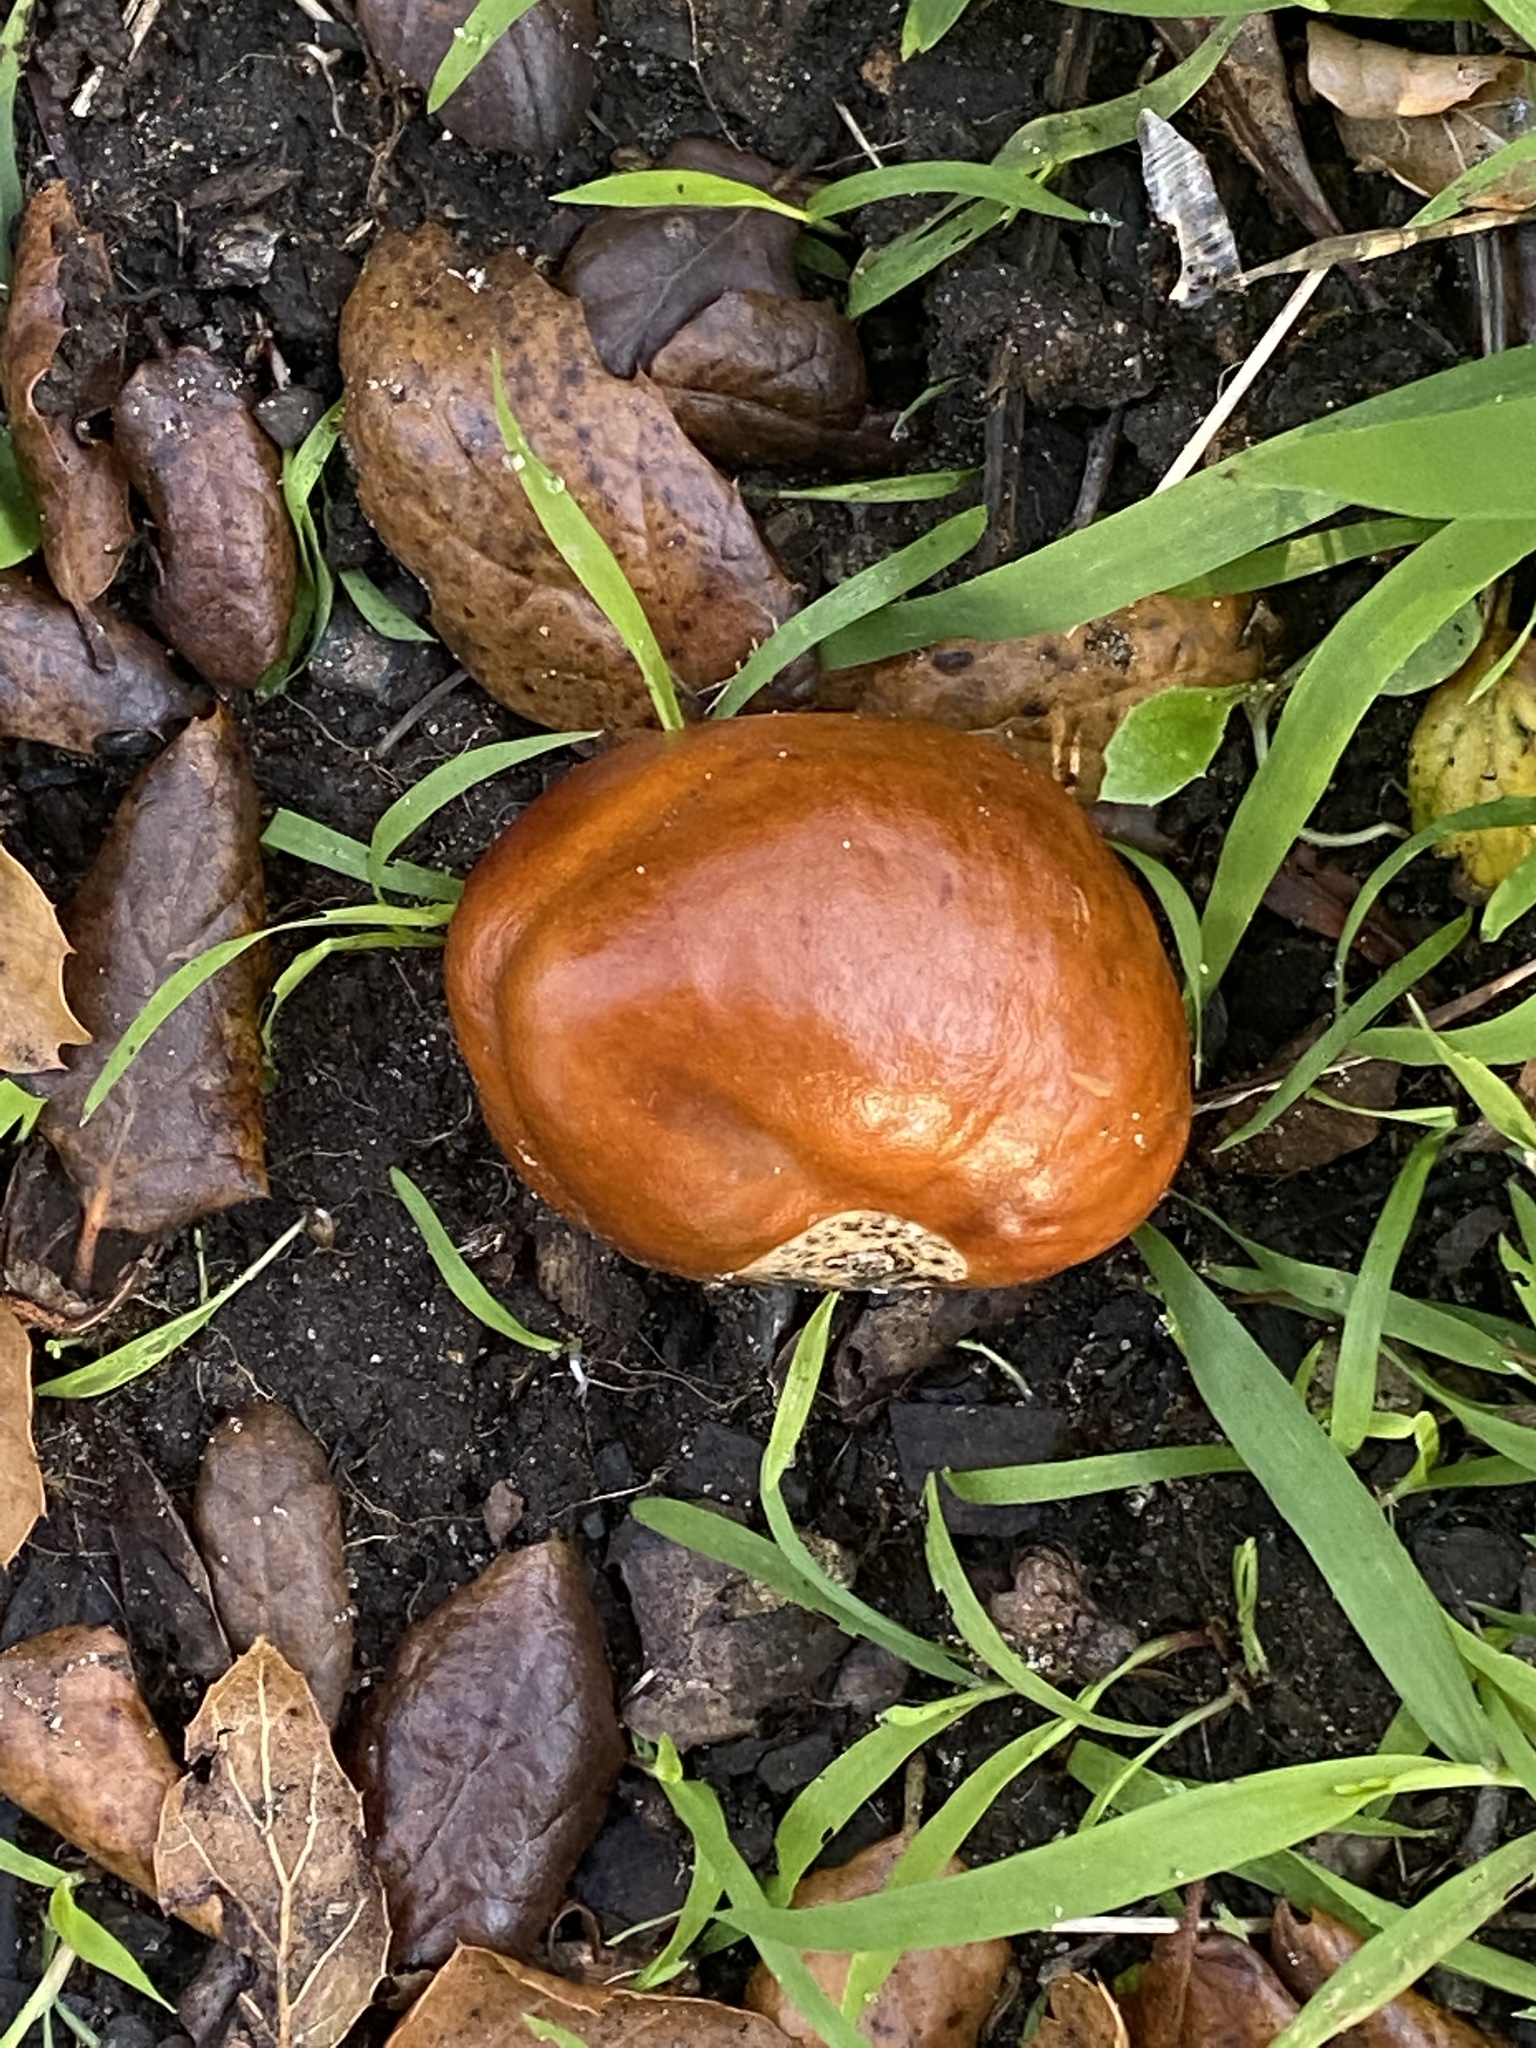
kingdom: Plantae
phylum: Tracheophyta
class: Magnoliopsida
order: Sapindales
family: Sapindaceae
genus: Aesculus
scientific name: Aesculus californica
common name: California buckeye
